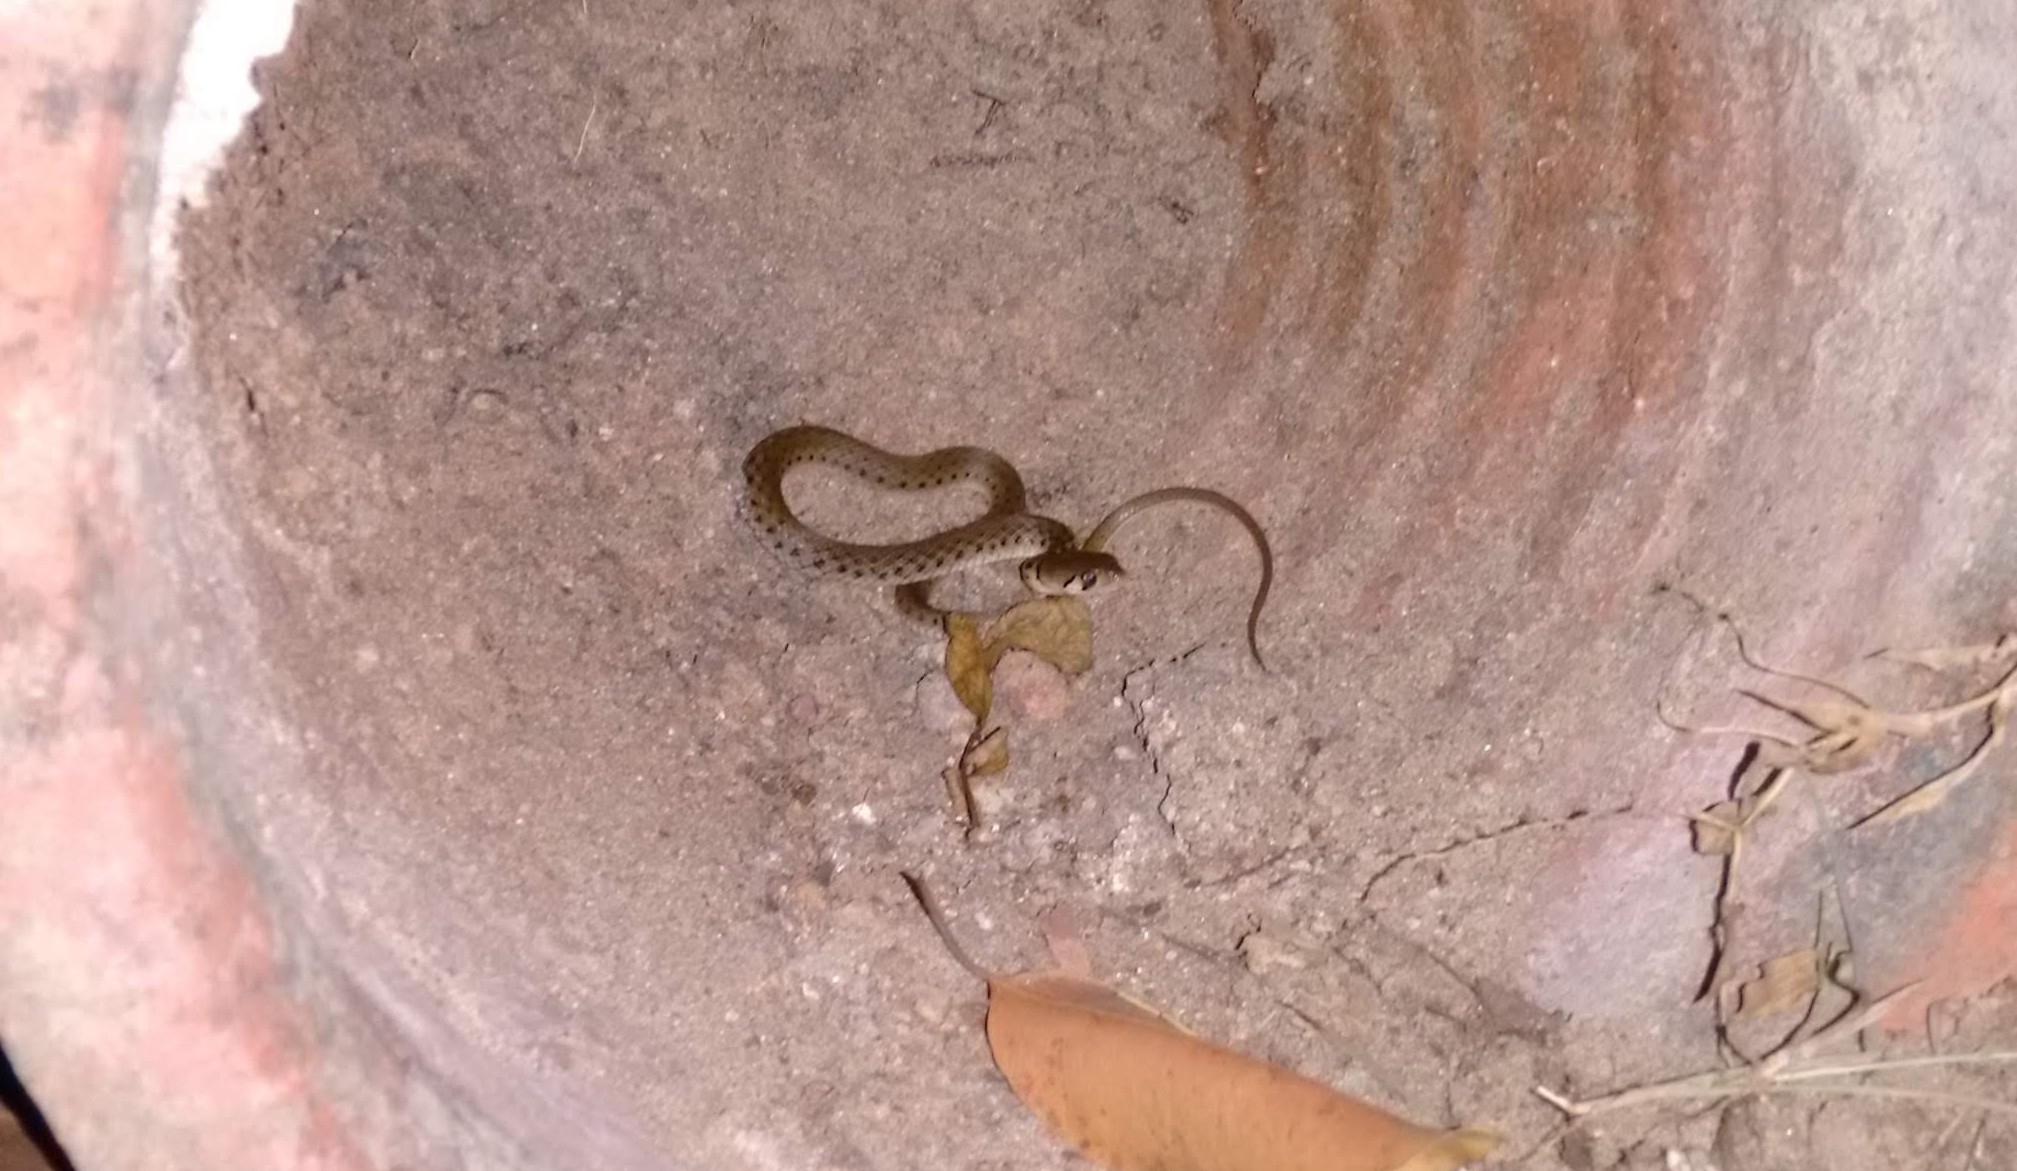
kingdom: Animalia
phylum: Chordata
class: Squamata
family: Colubridae
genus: Fowlea
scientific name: Fowlea piscator
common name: Asiatic water snake
